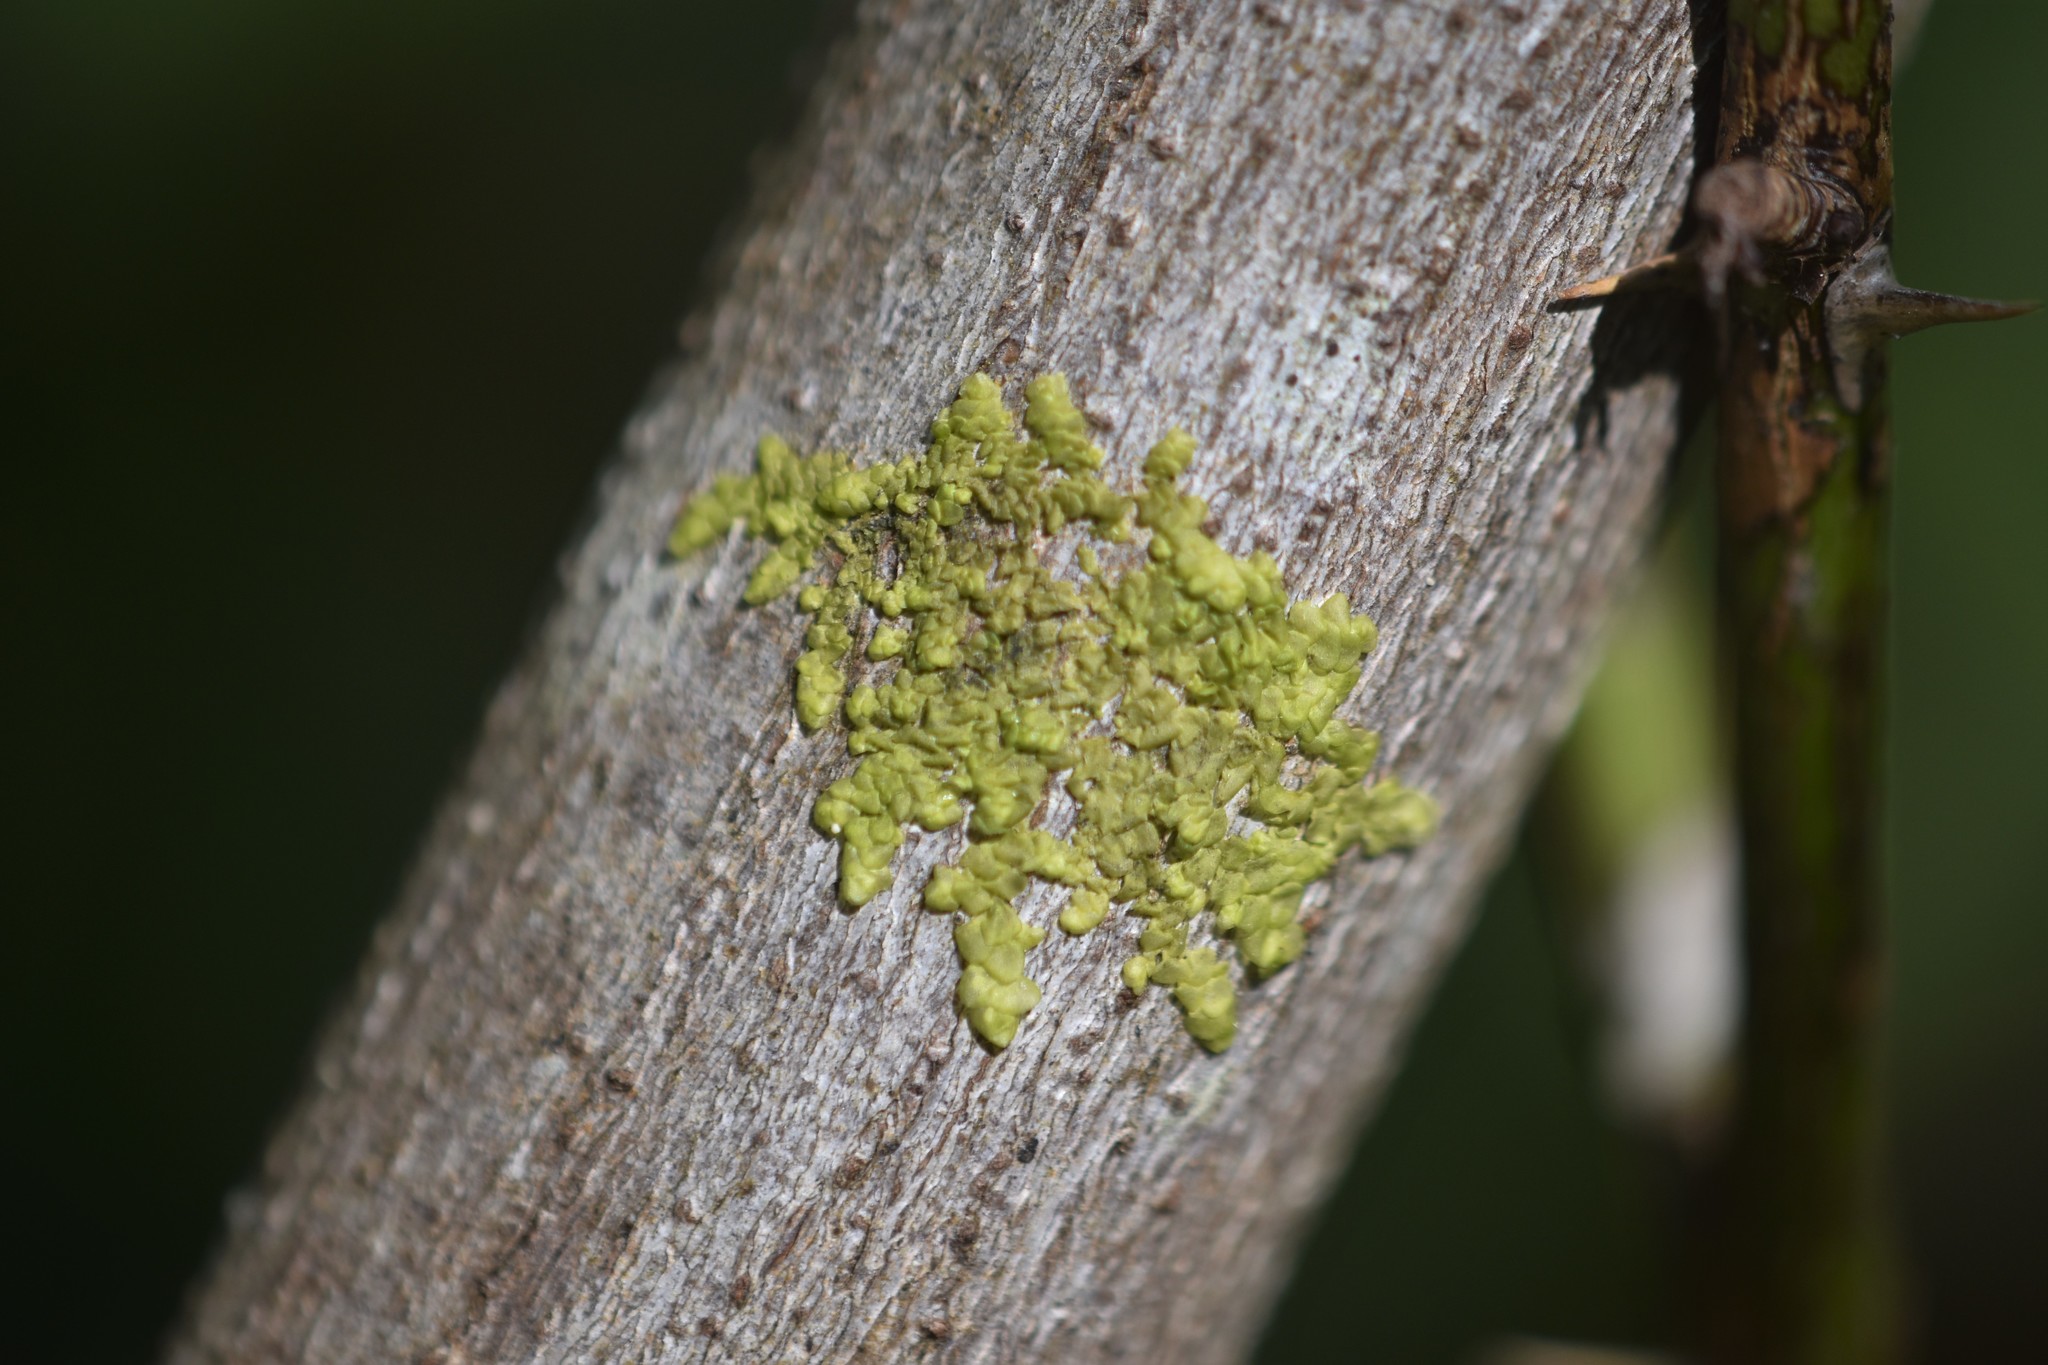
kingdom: Plantae
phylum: Marchantiophyta
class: Jungermanniopsida
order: Porellales
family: Radulaceae
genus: Radula
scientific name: Radula complanata
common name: Flat-leaved scalewort
